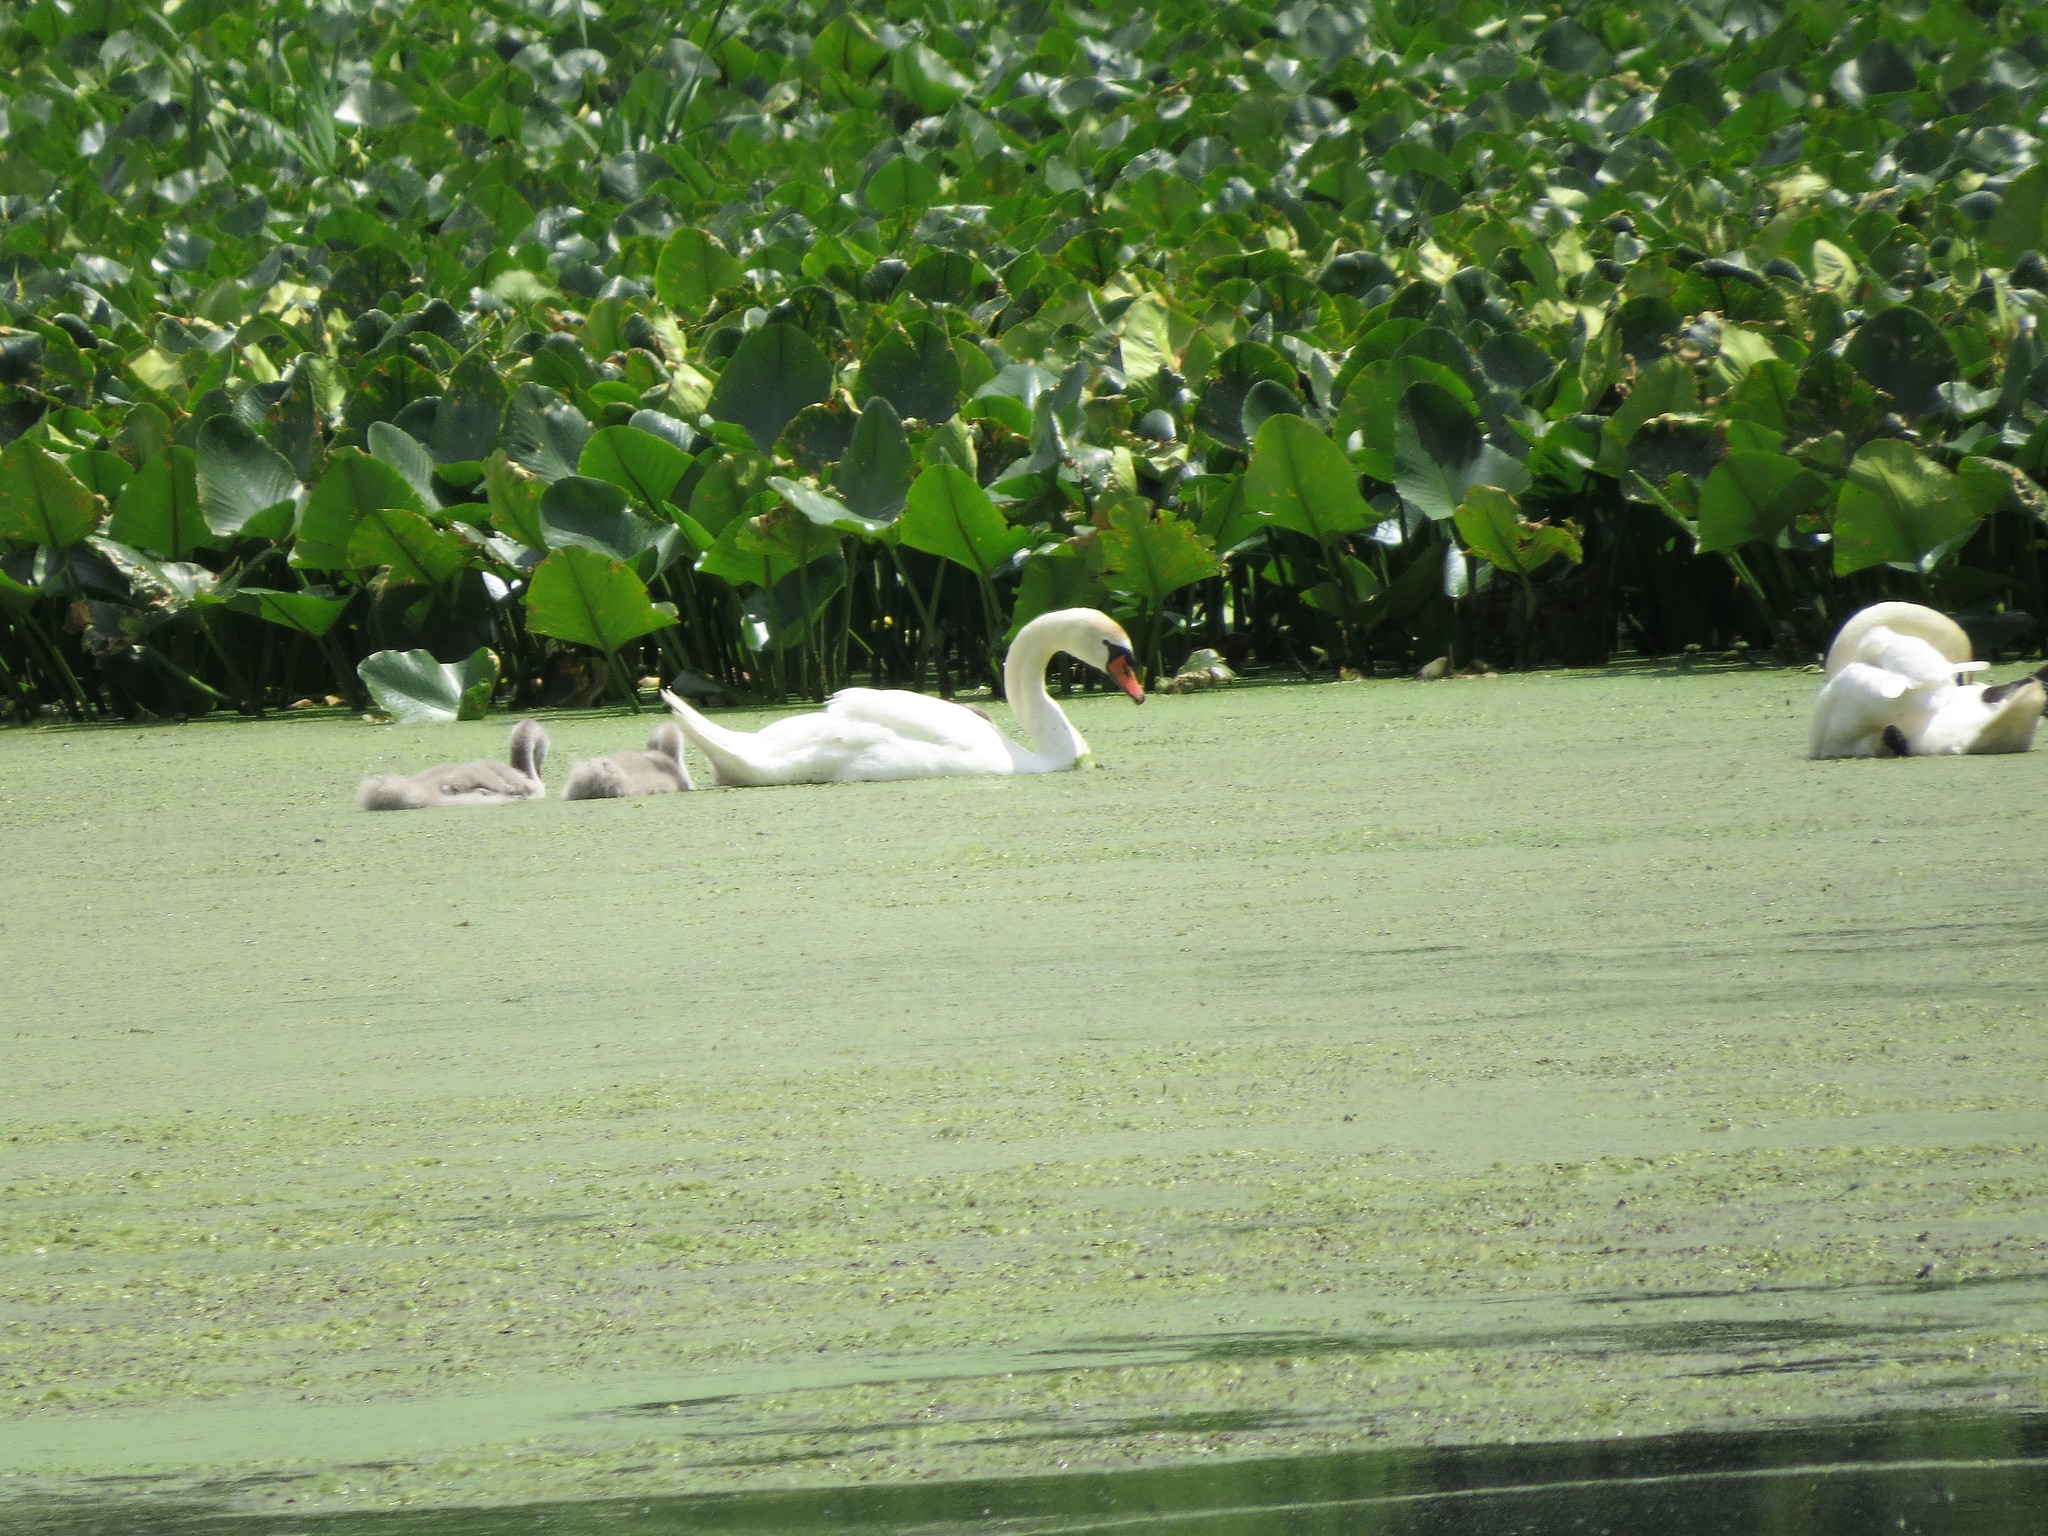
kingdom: Animalia
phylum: Chordata
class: Aves
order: Anseriformes
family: Anatidae
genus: Cygnus
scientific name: Cygnus olor
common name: Mute swan
